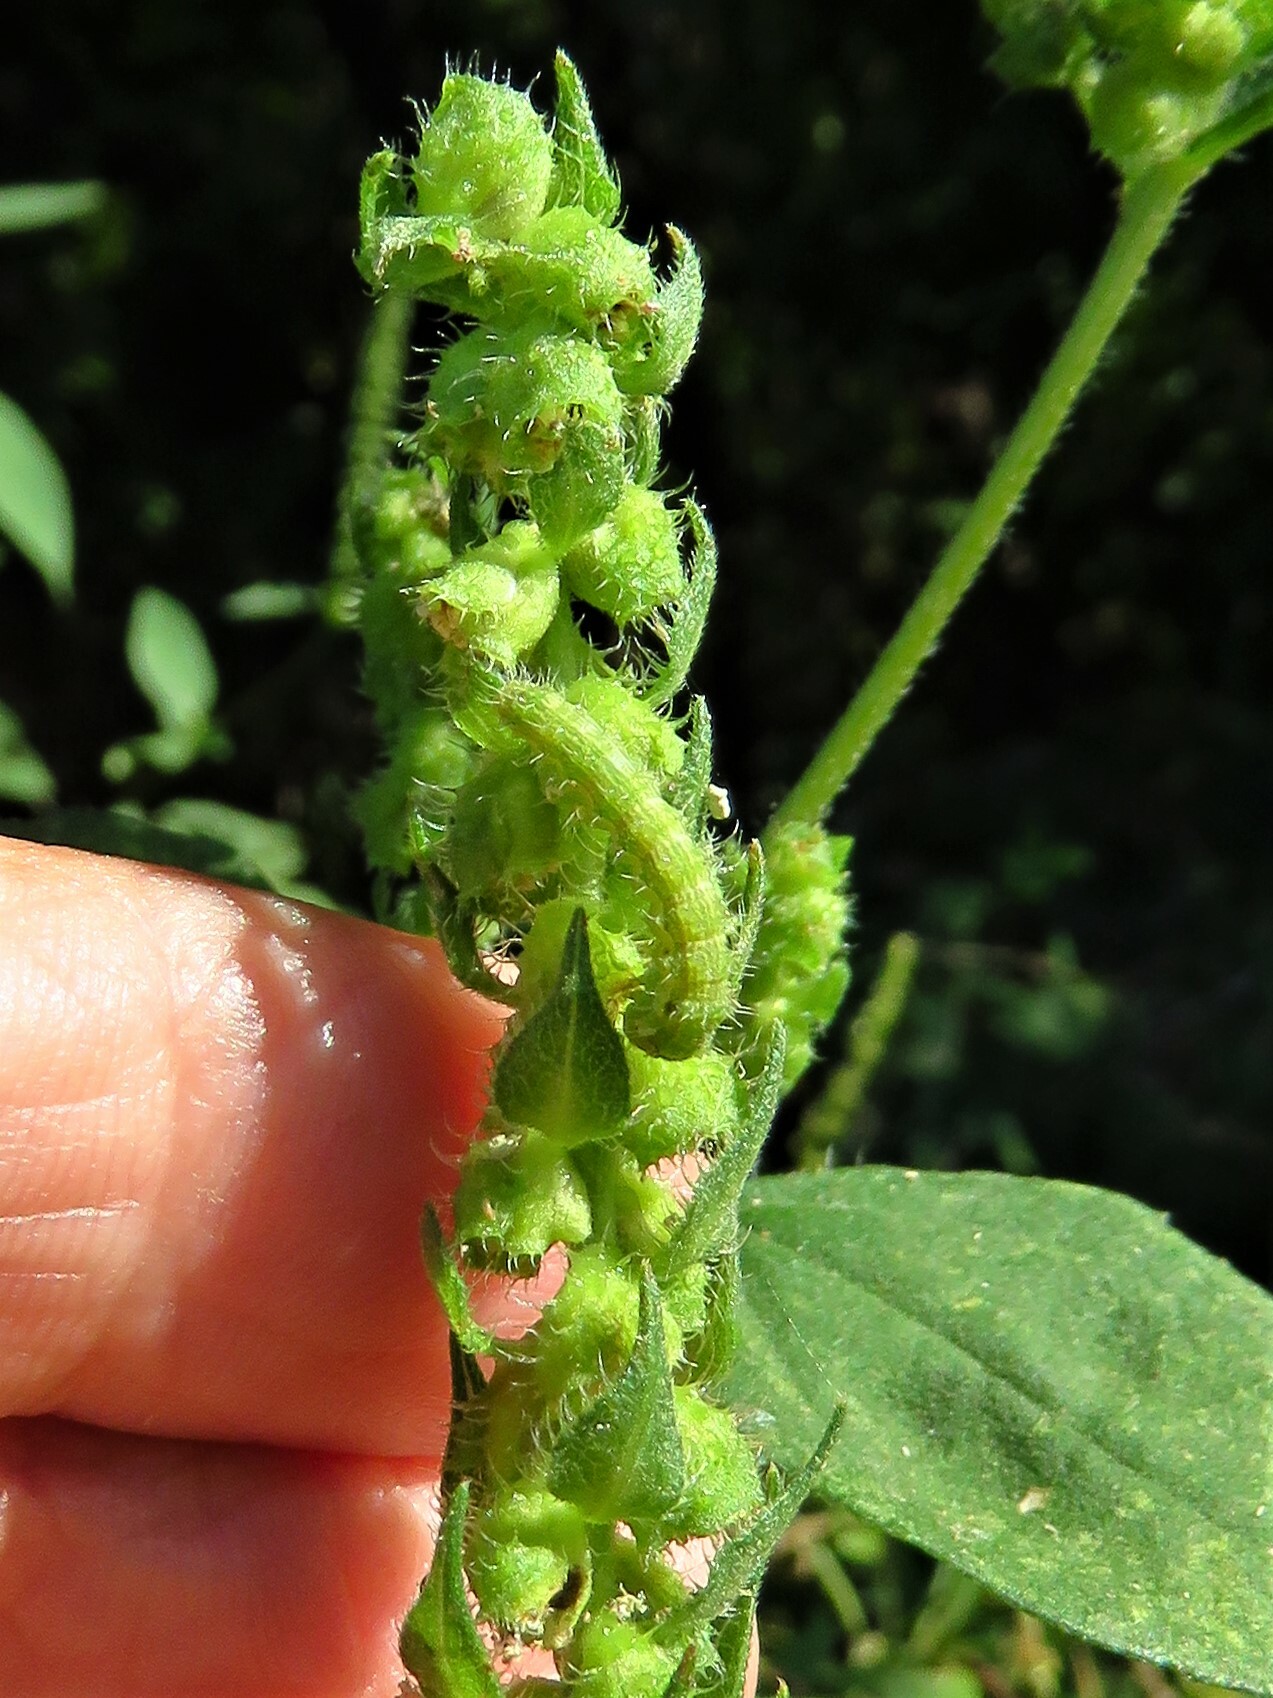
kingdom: Animalia
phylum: Arthropoda
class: Insecta
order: Lepidoptera
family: Noctuidae
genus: Schinia
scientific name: Schinia gracilenta
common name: Slender flower moth
